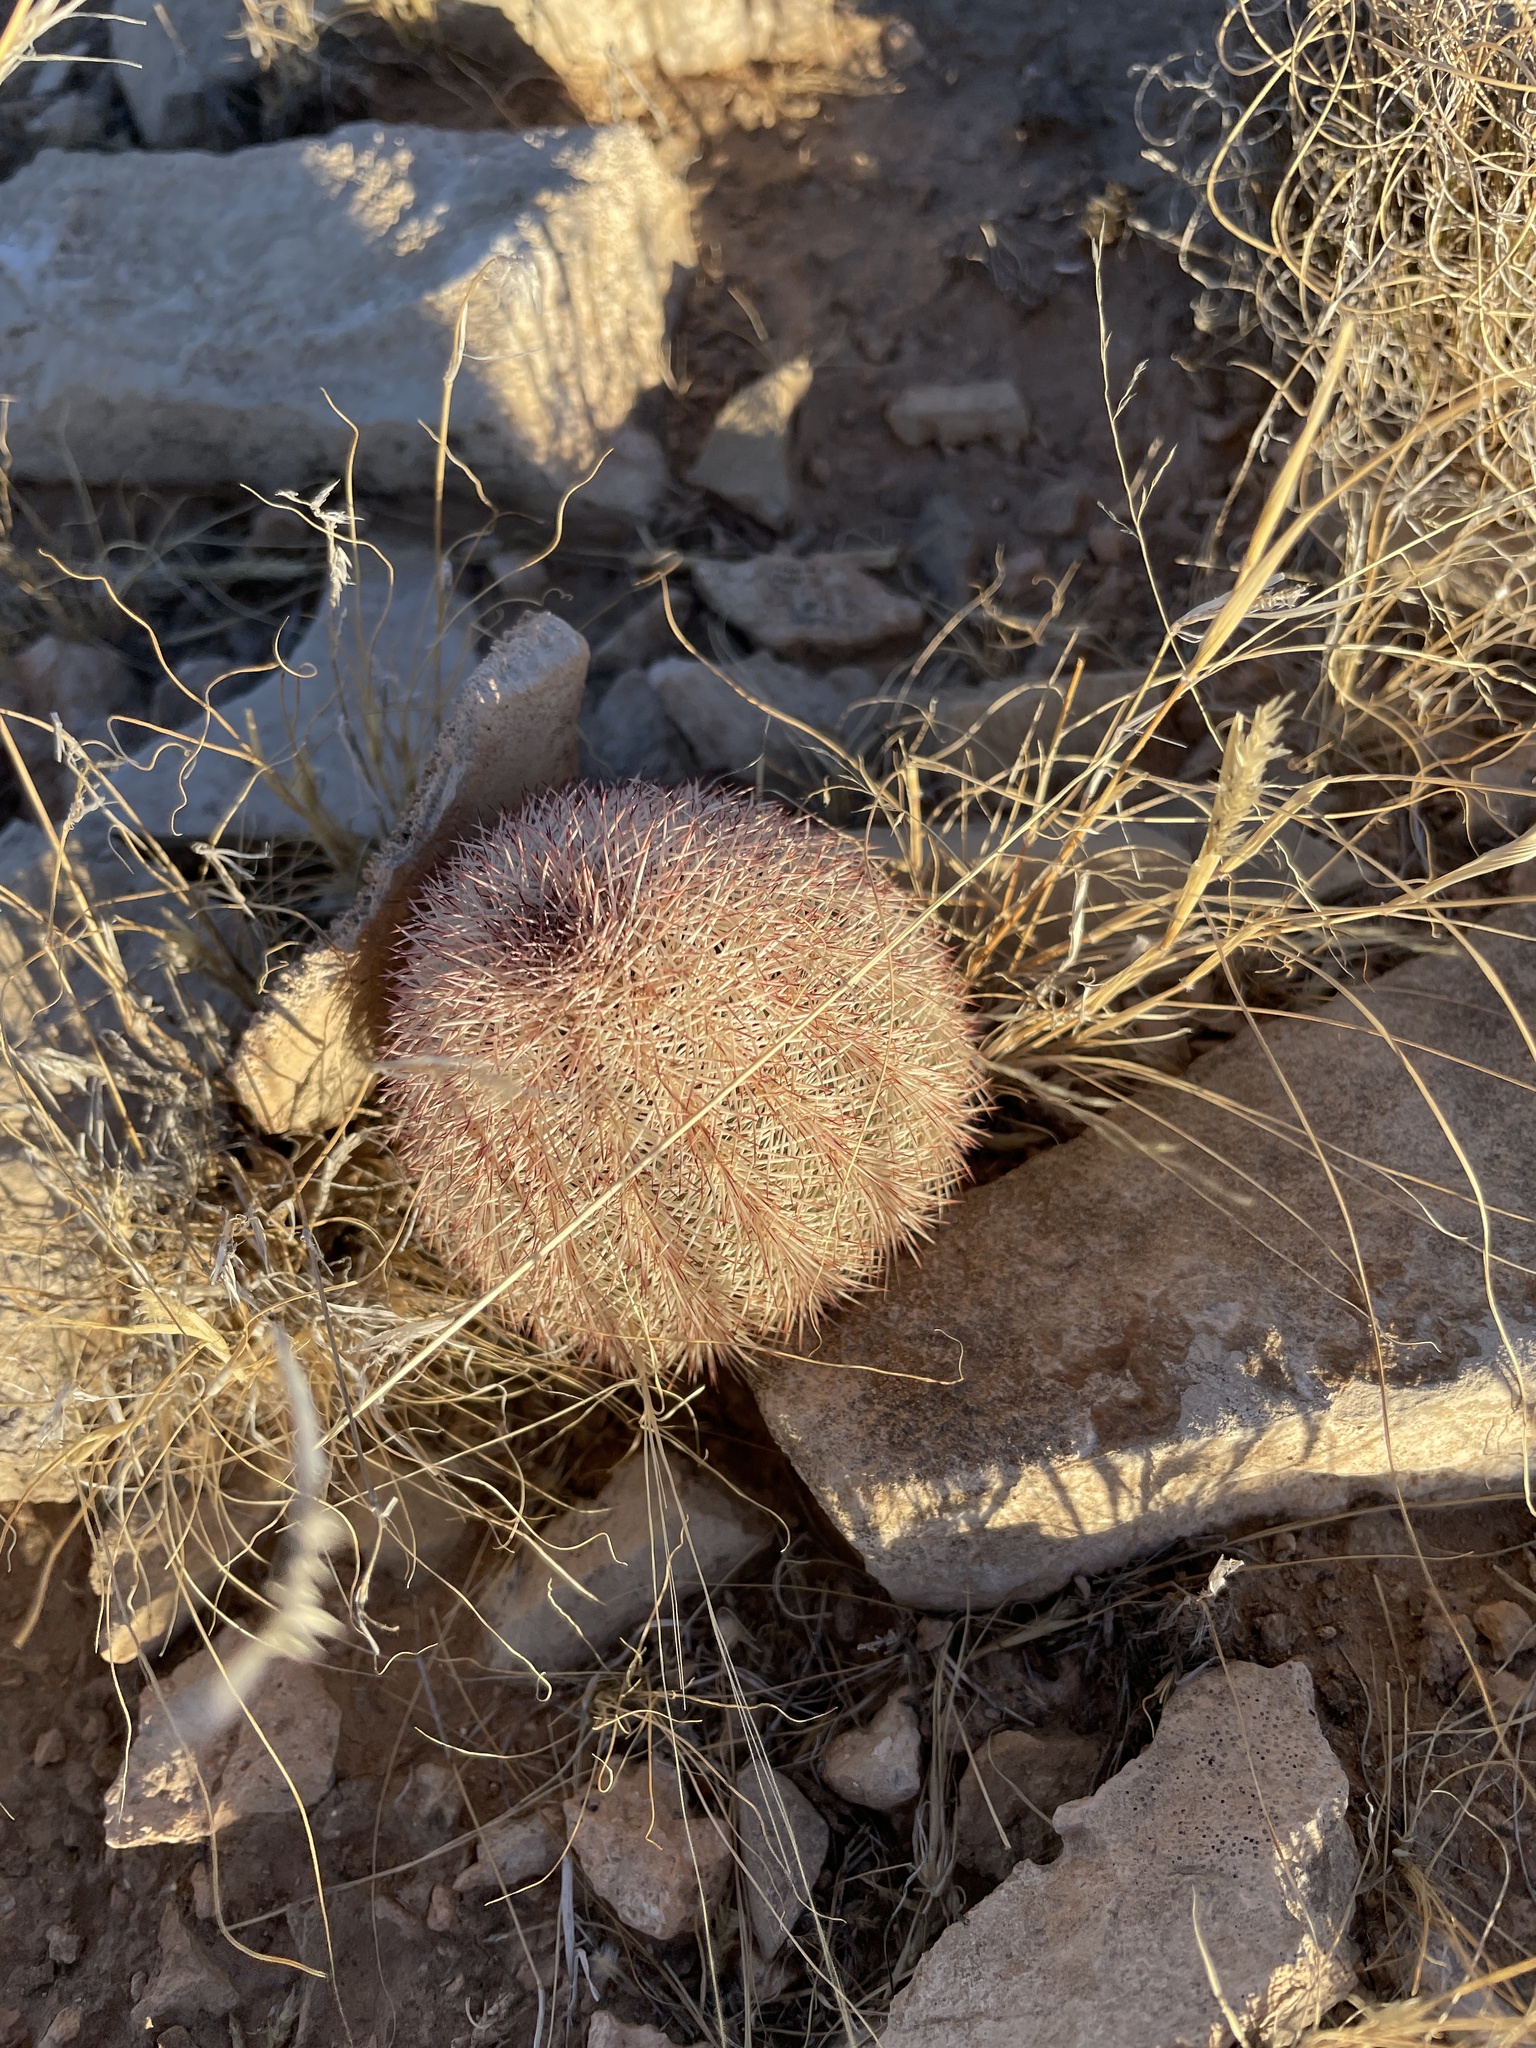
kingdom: Plantae
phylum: Tracheophyta
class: Magnoliopsida
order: Caryophyllales
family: Cactaceae
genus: Echinocereus
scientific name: Echinocereus dasyacanthus
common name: Spiny hedgehog cactus
